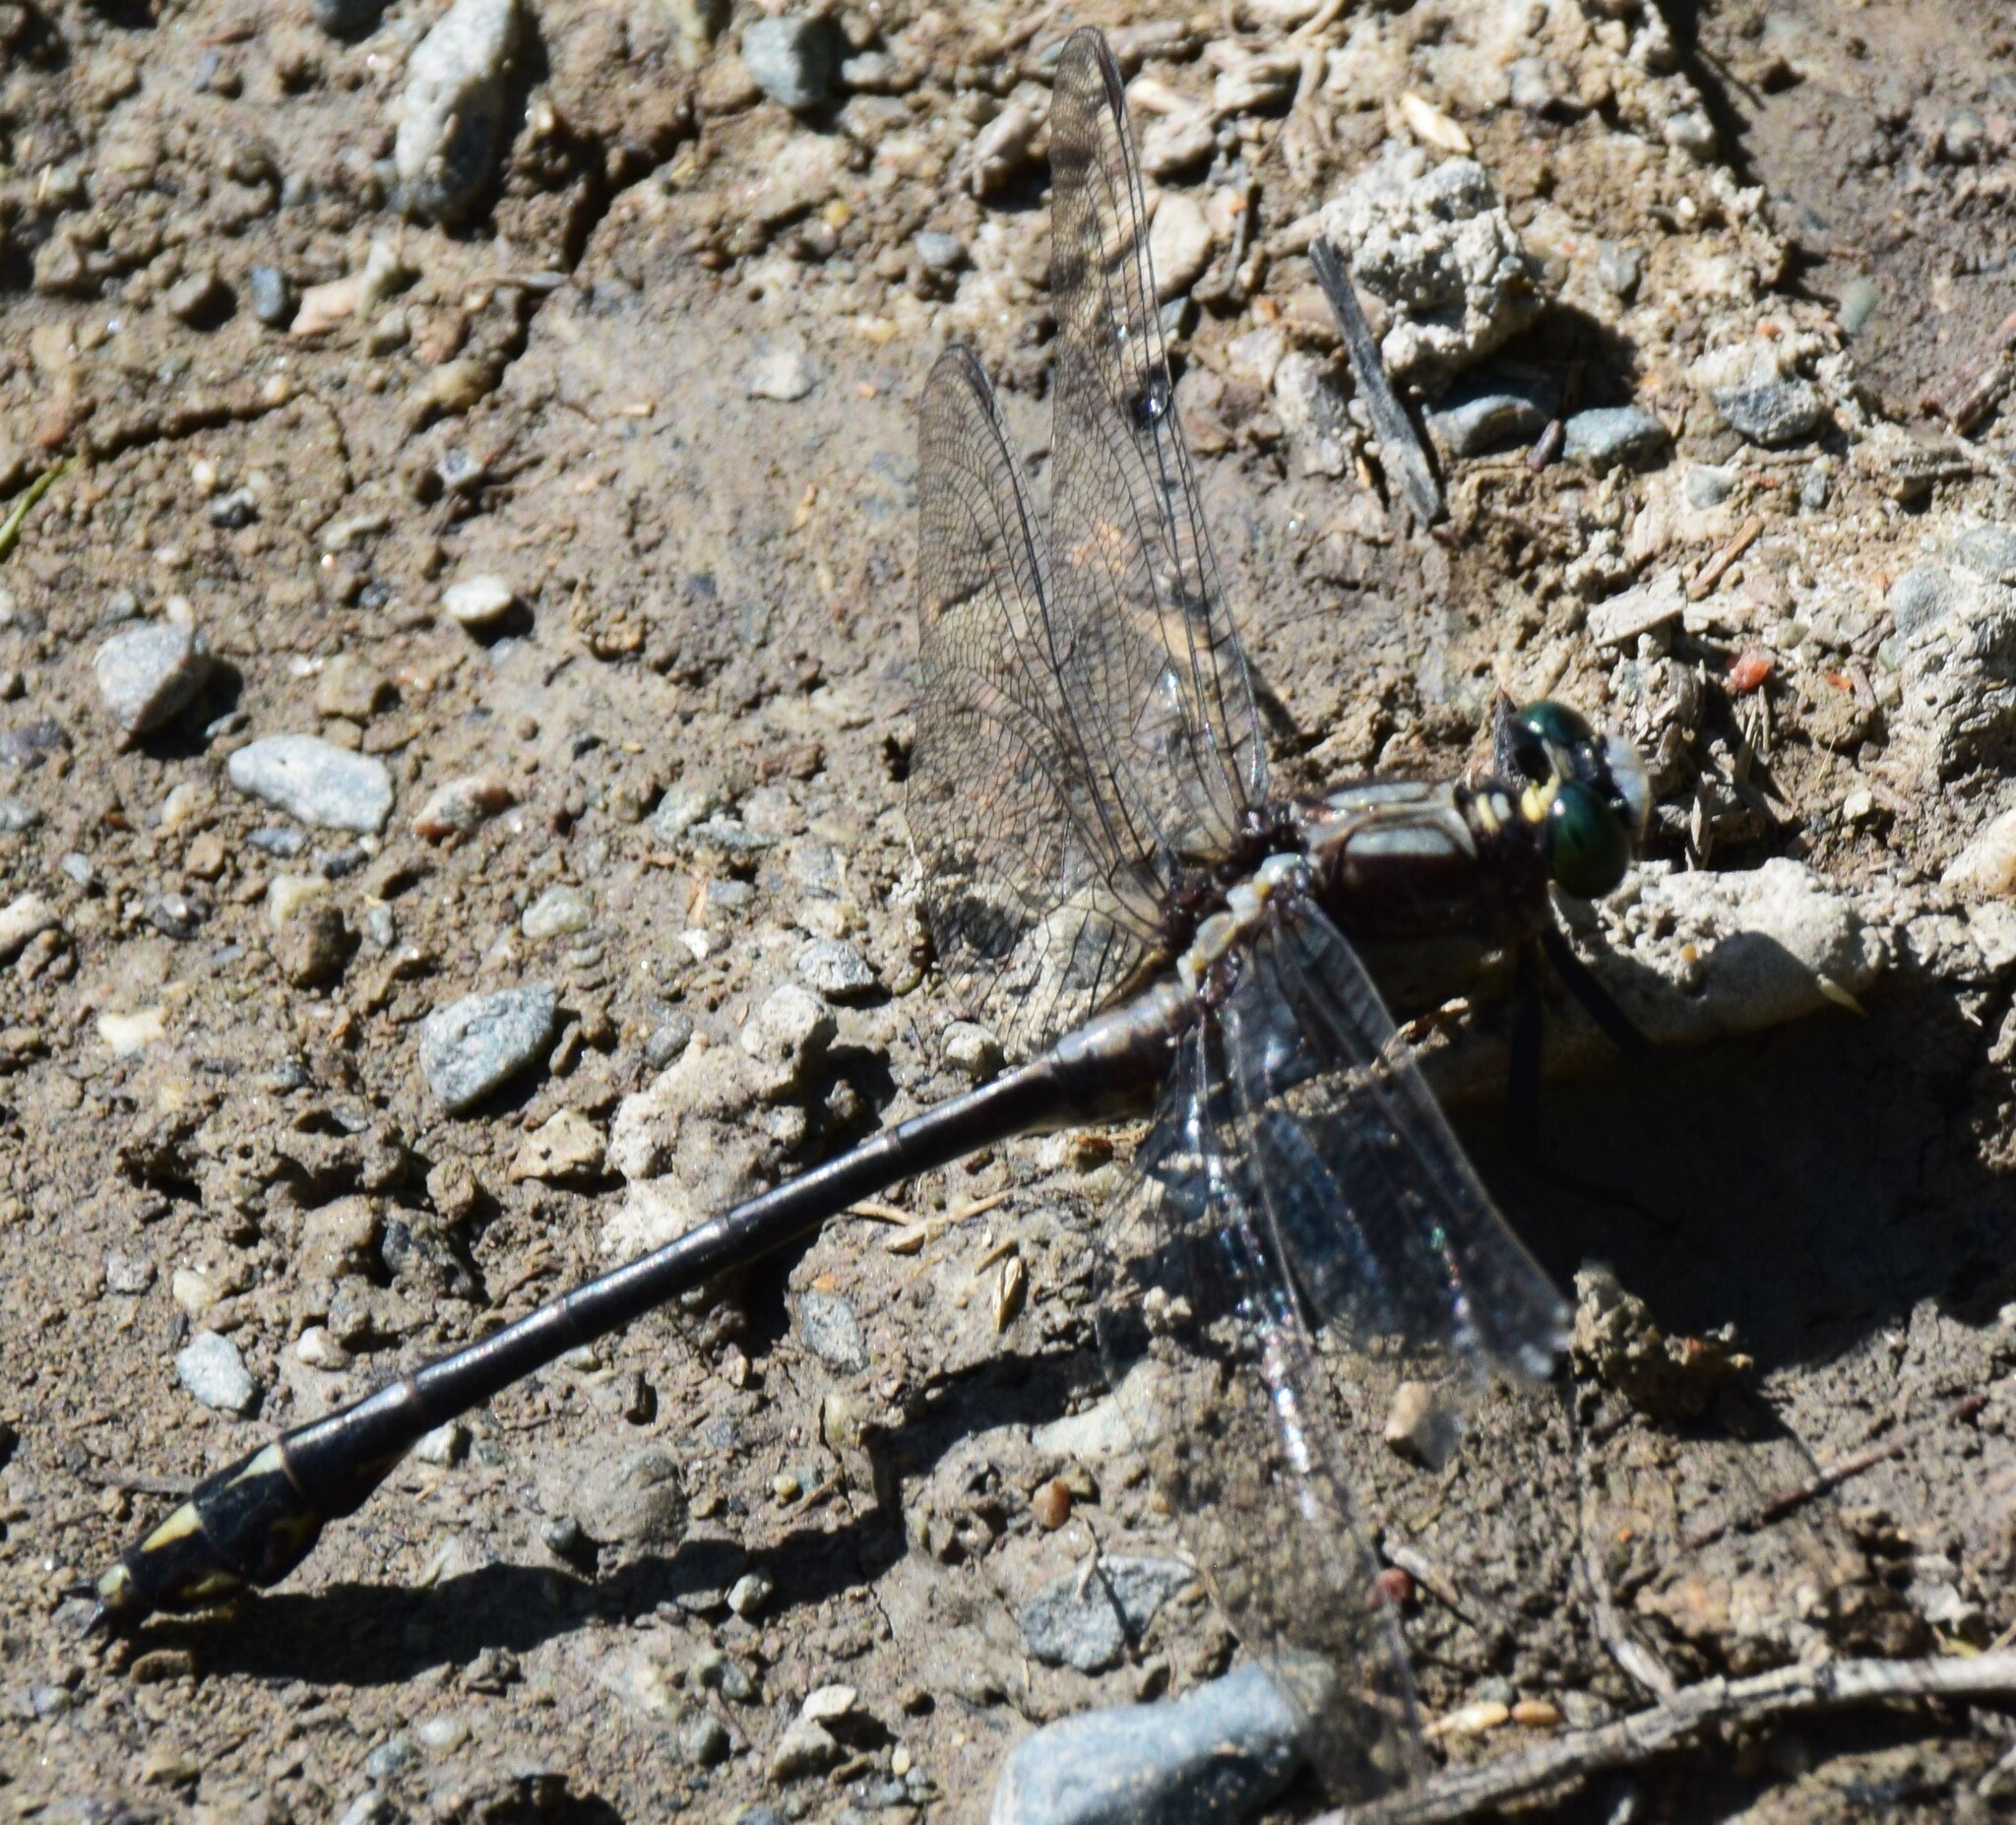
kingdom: Animalia
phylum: Arthropoda
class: Insecta
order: Odonata
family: Gomphidae
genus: Dromogomphus
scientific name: Dromogomphus spinosus
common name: Black-shouldered spinyleg
